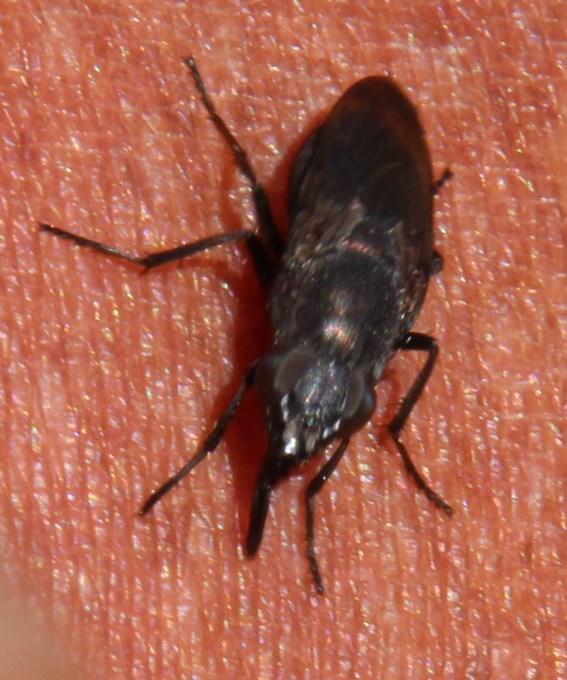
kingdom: Animalia
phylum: Arthropoda
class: Insecta
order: Diptera
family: Calliphoridae
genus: Cosmina
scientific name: Cosmina fuscipennis
